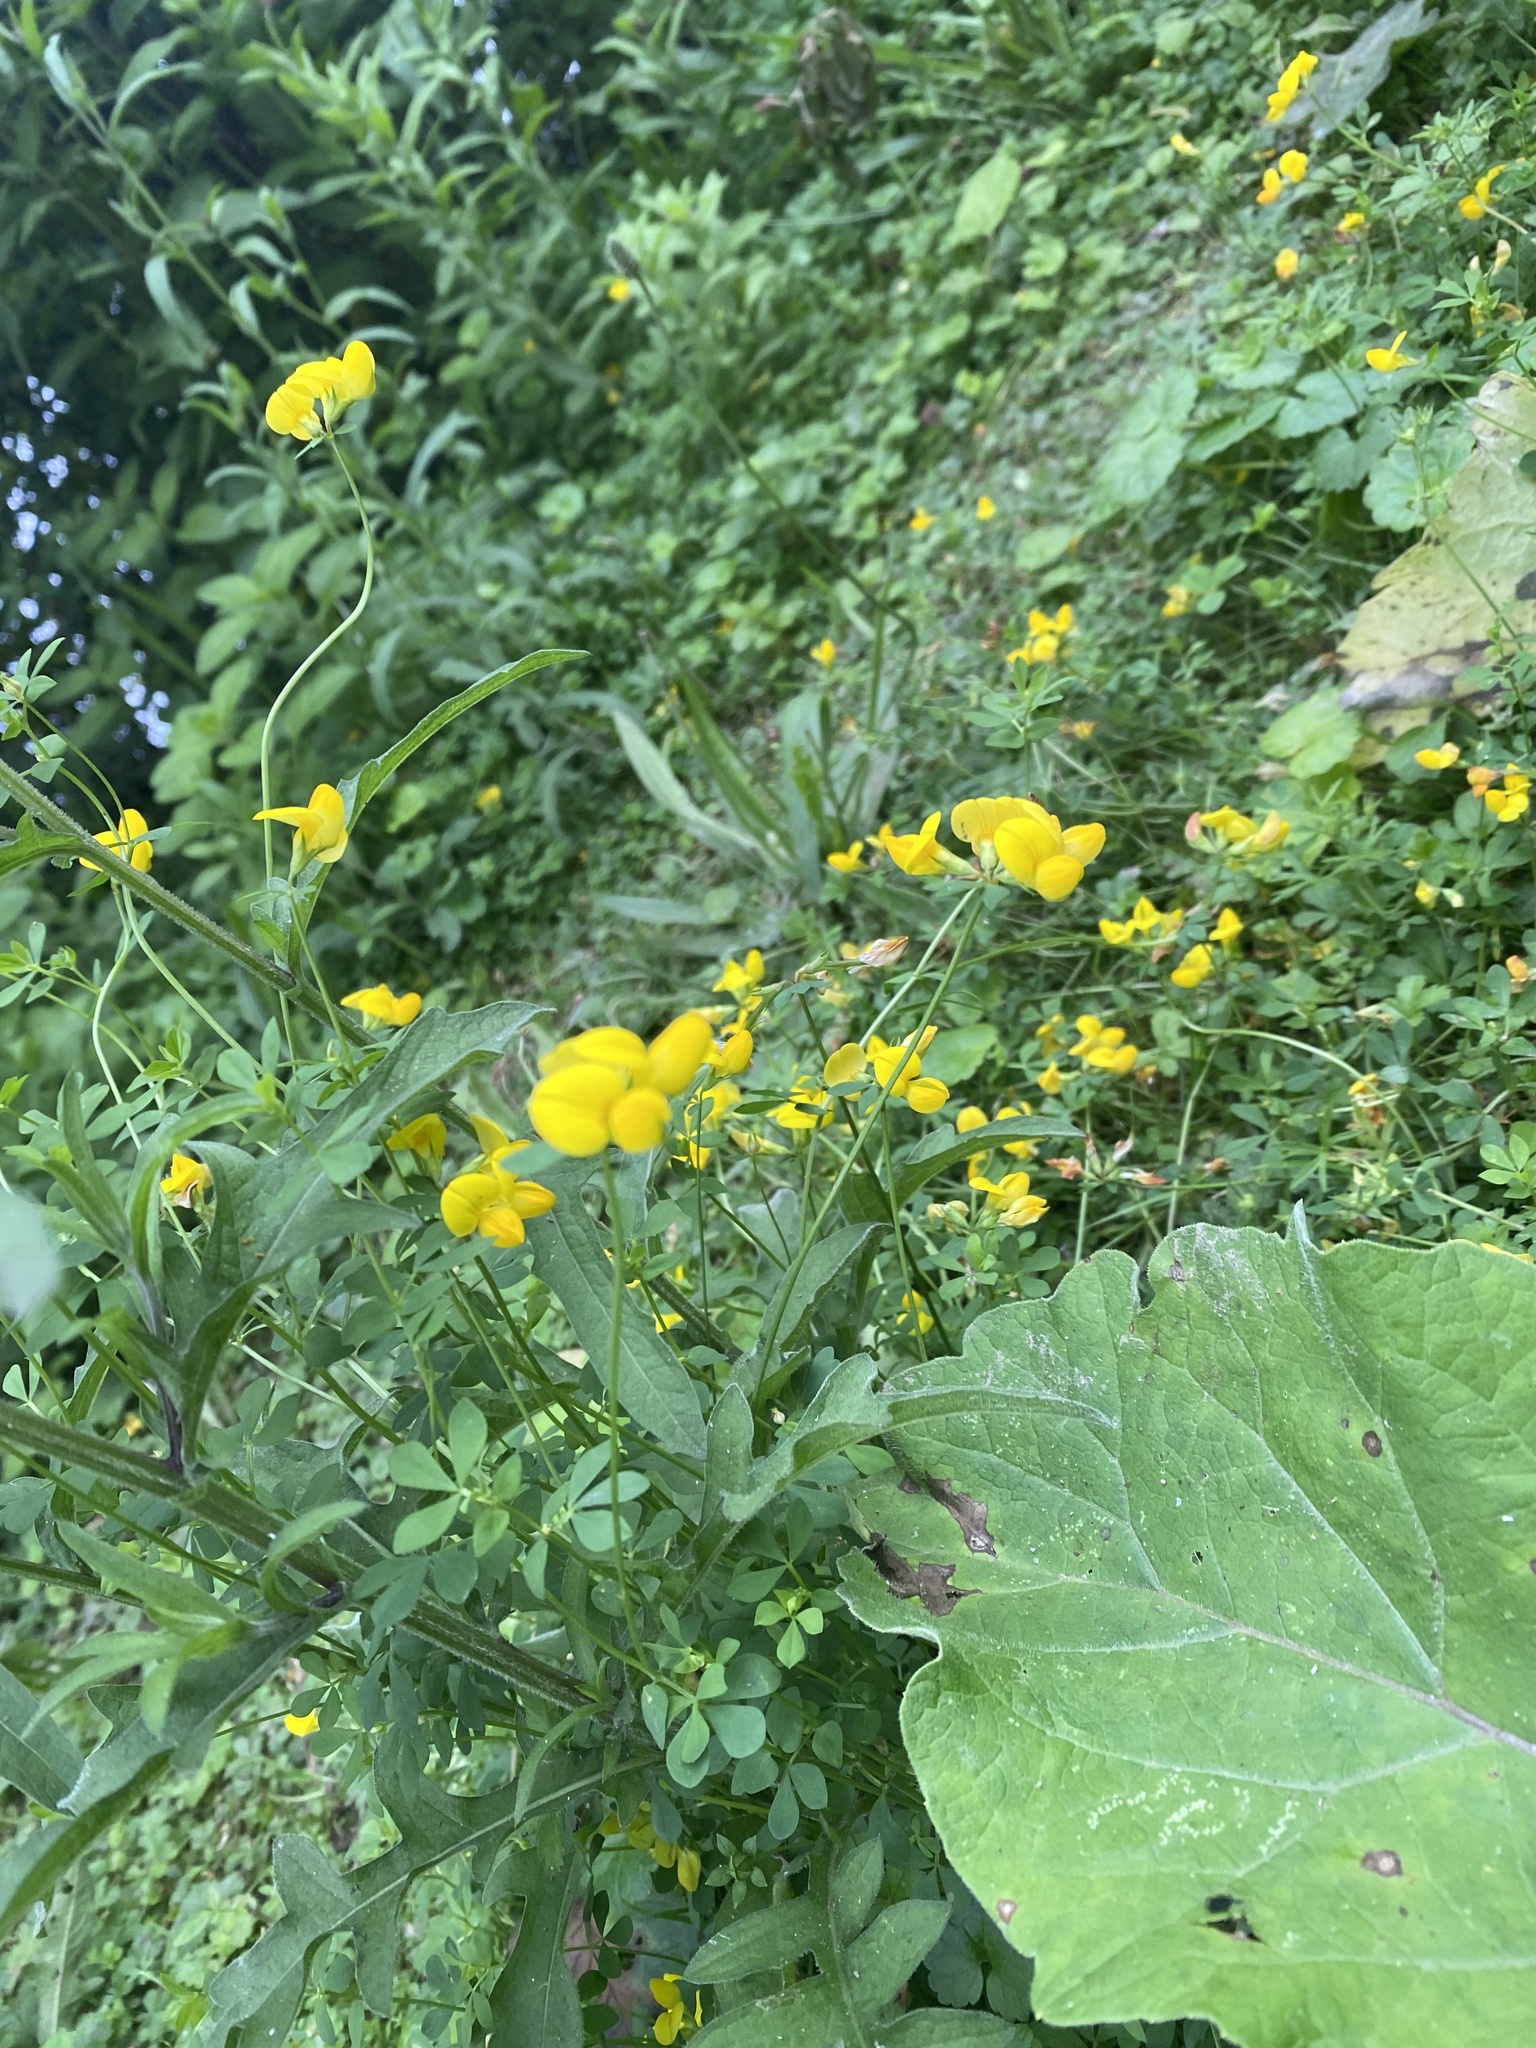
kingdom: Plantae
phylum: Tracheophyta
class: Magnoliopsida
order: Fabales
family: Fabaceae
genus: Lotus
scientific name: Lotus corniculatus
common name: Common bird's-foot-trefoil
